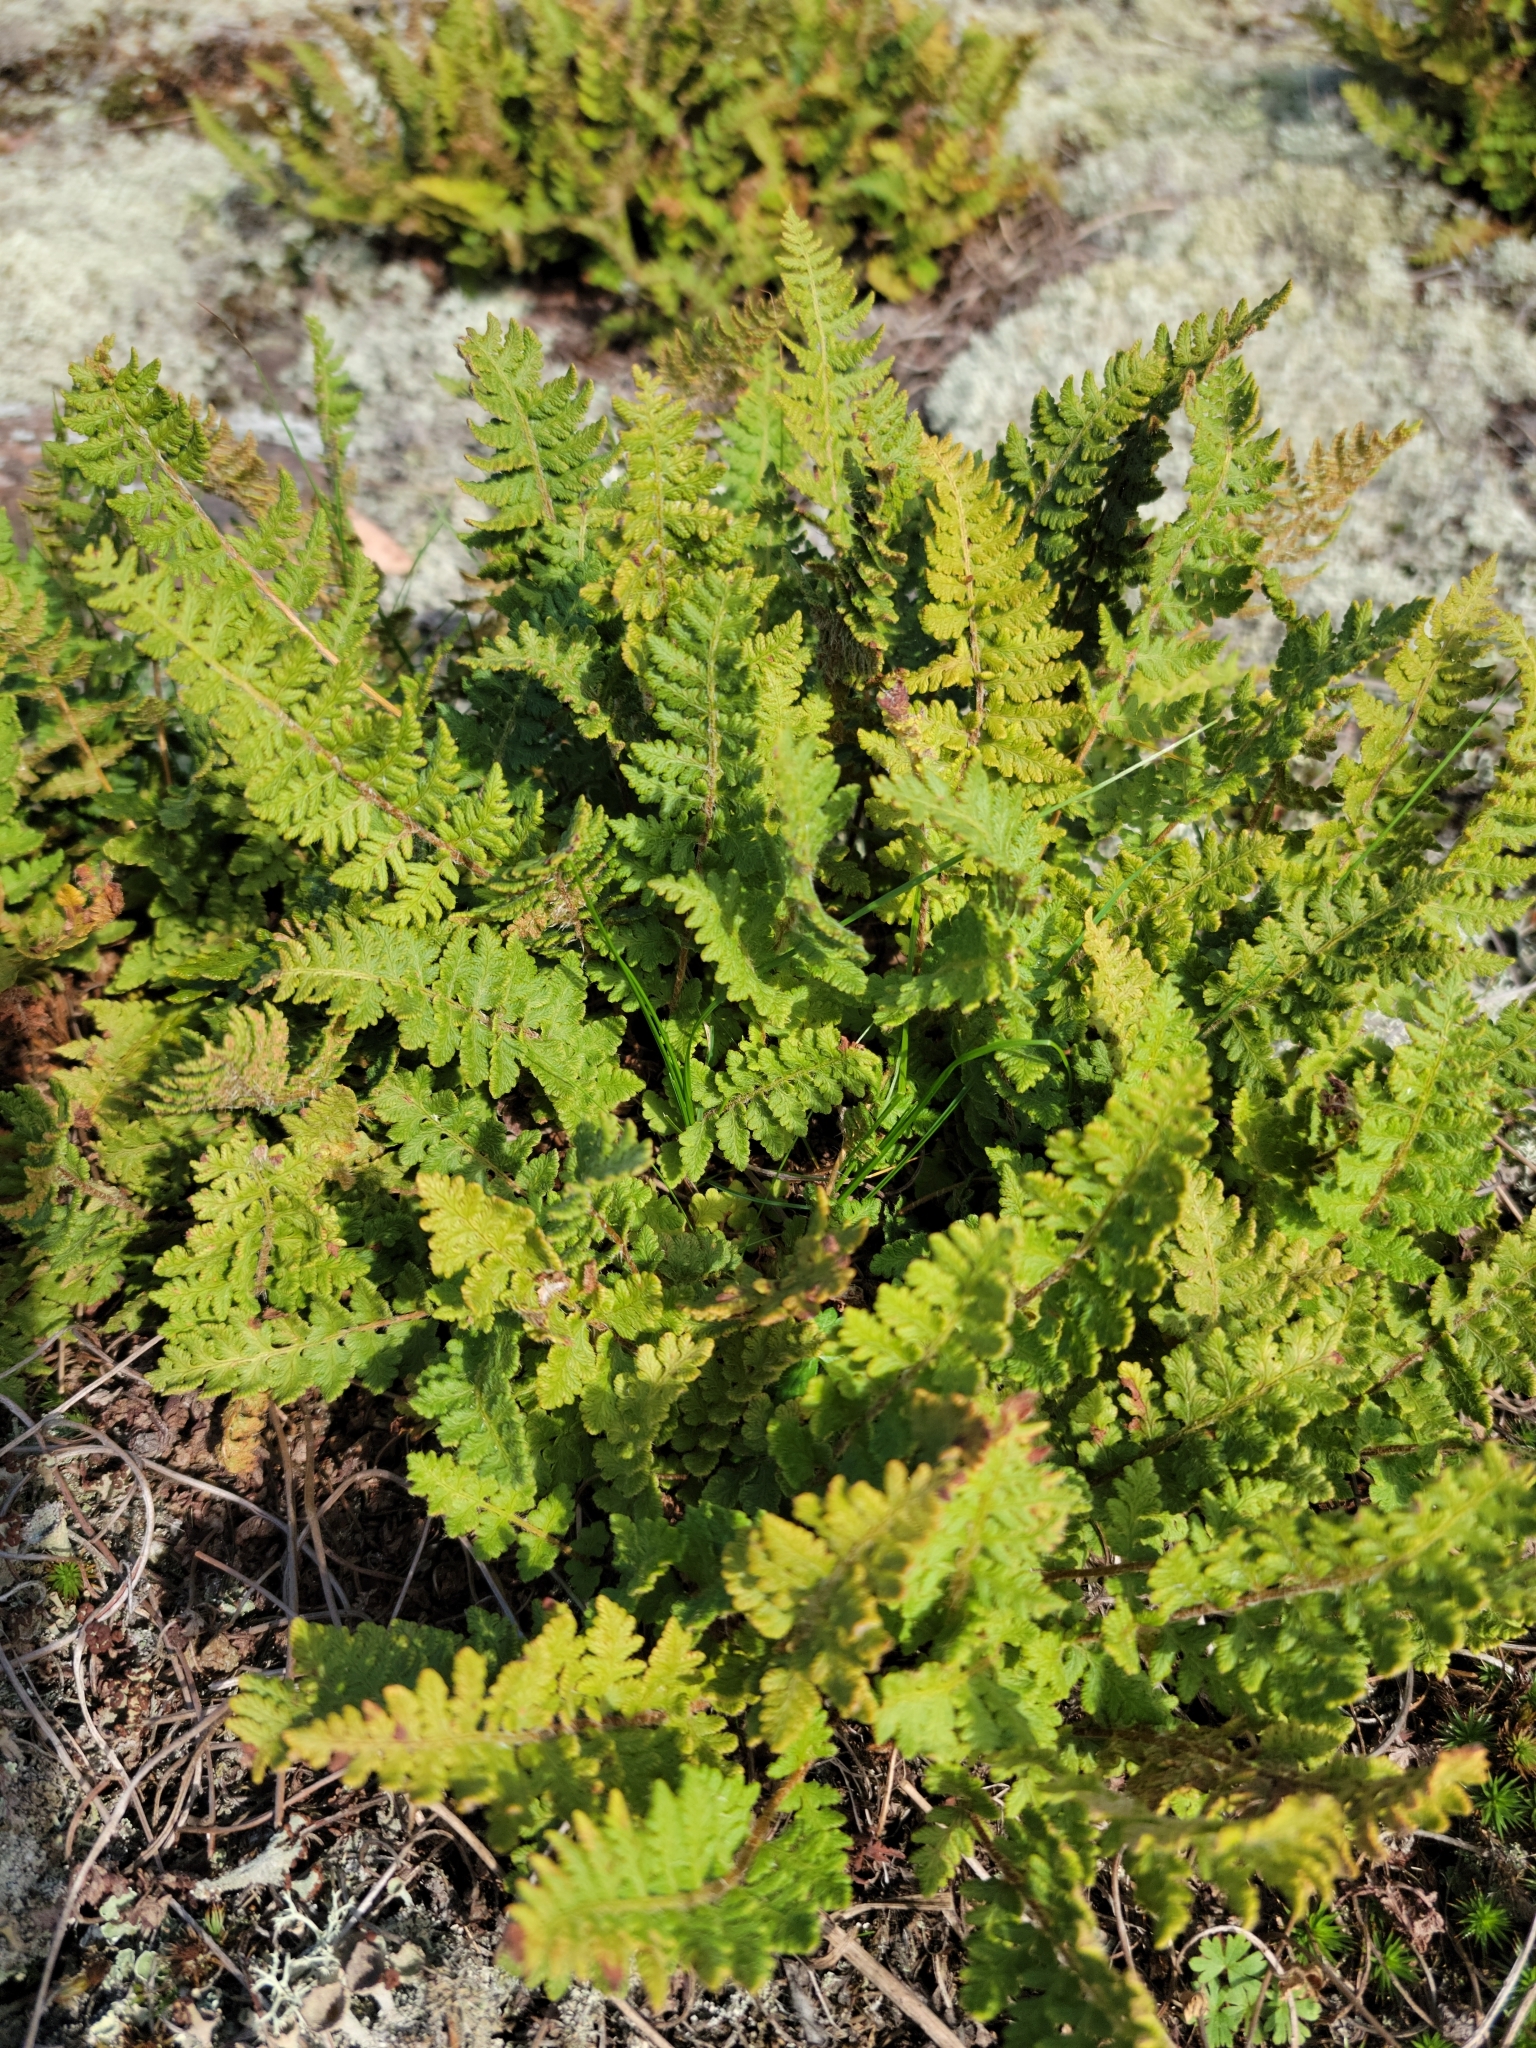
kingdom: Plantae
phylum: Tracheophyta
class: Polypodiopsida
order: Polypodiales
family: Woodsiaceae
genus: Woodsia
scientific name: Woodsia ilvensis
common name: Fragrant woodsia
